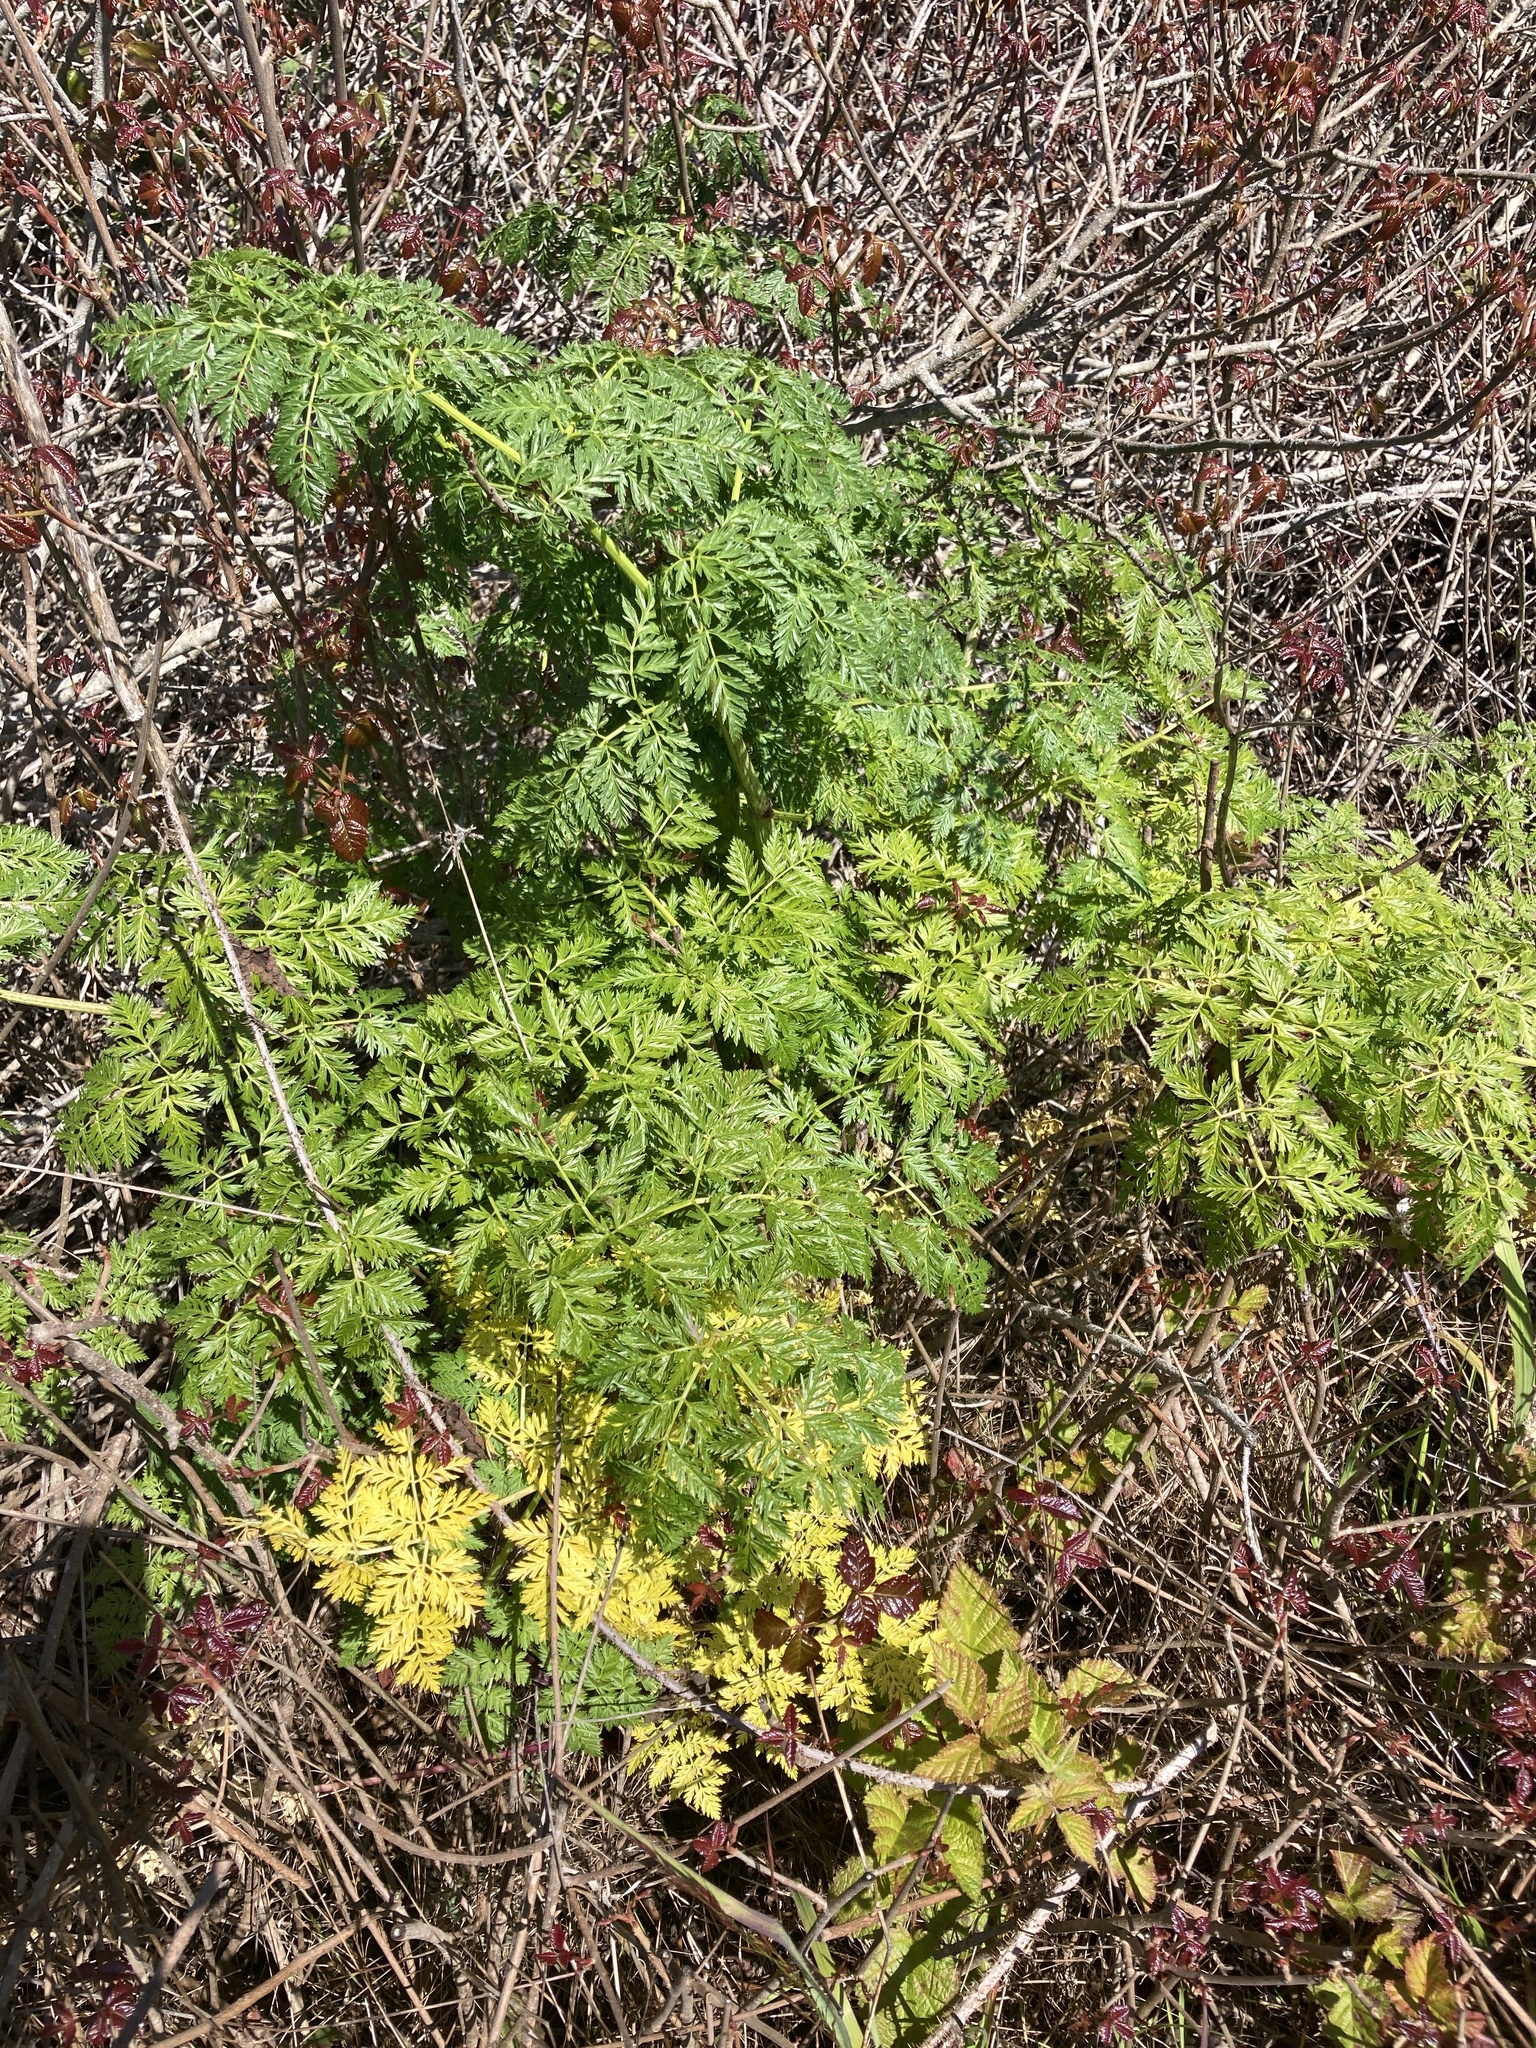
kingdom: Plantae
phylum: Tracheophyta
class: Magnoliopsida
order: Apiales
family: Apiaceae
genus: Conium
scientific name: Conium maculatum
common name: Hemlock
